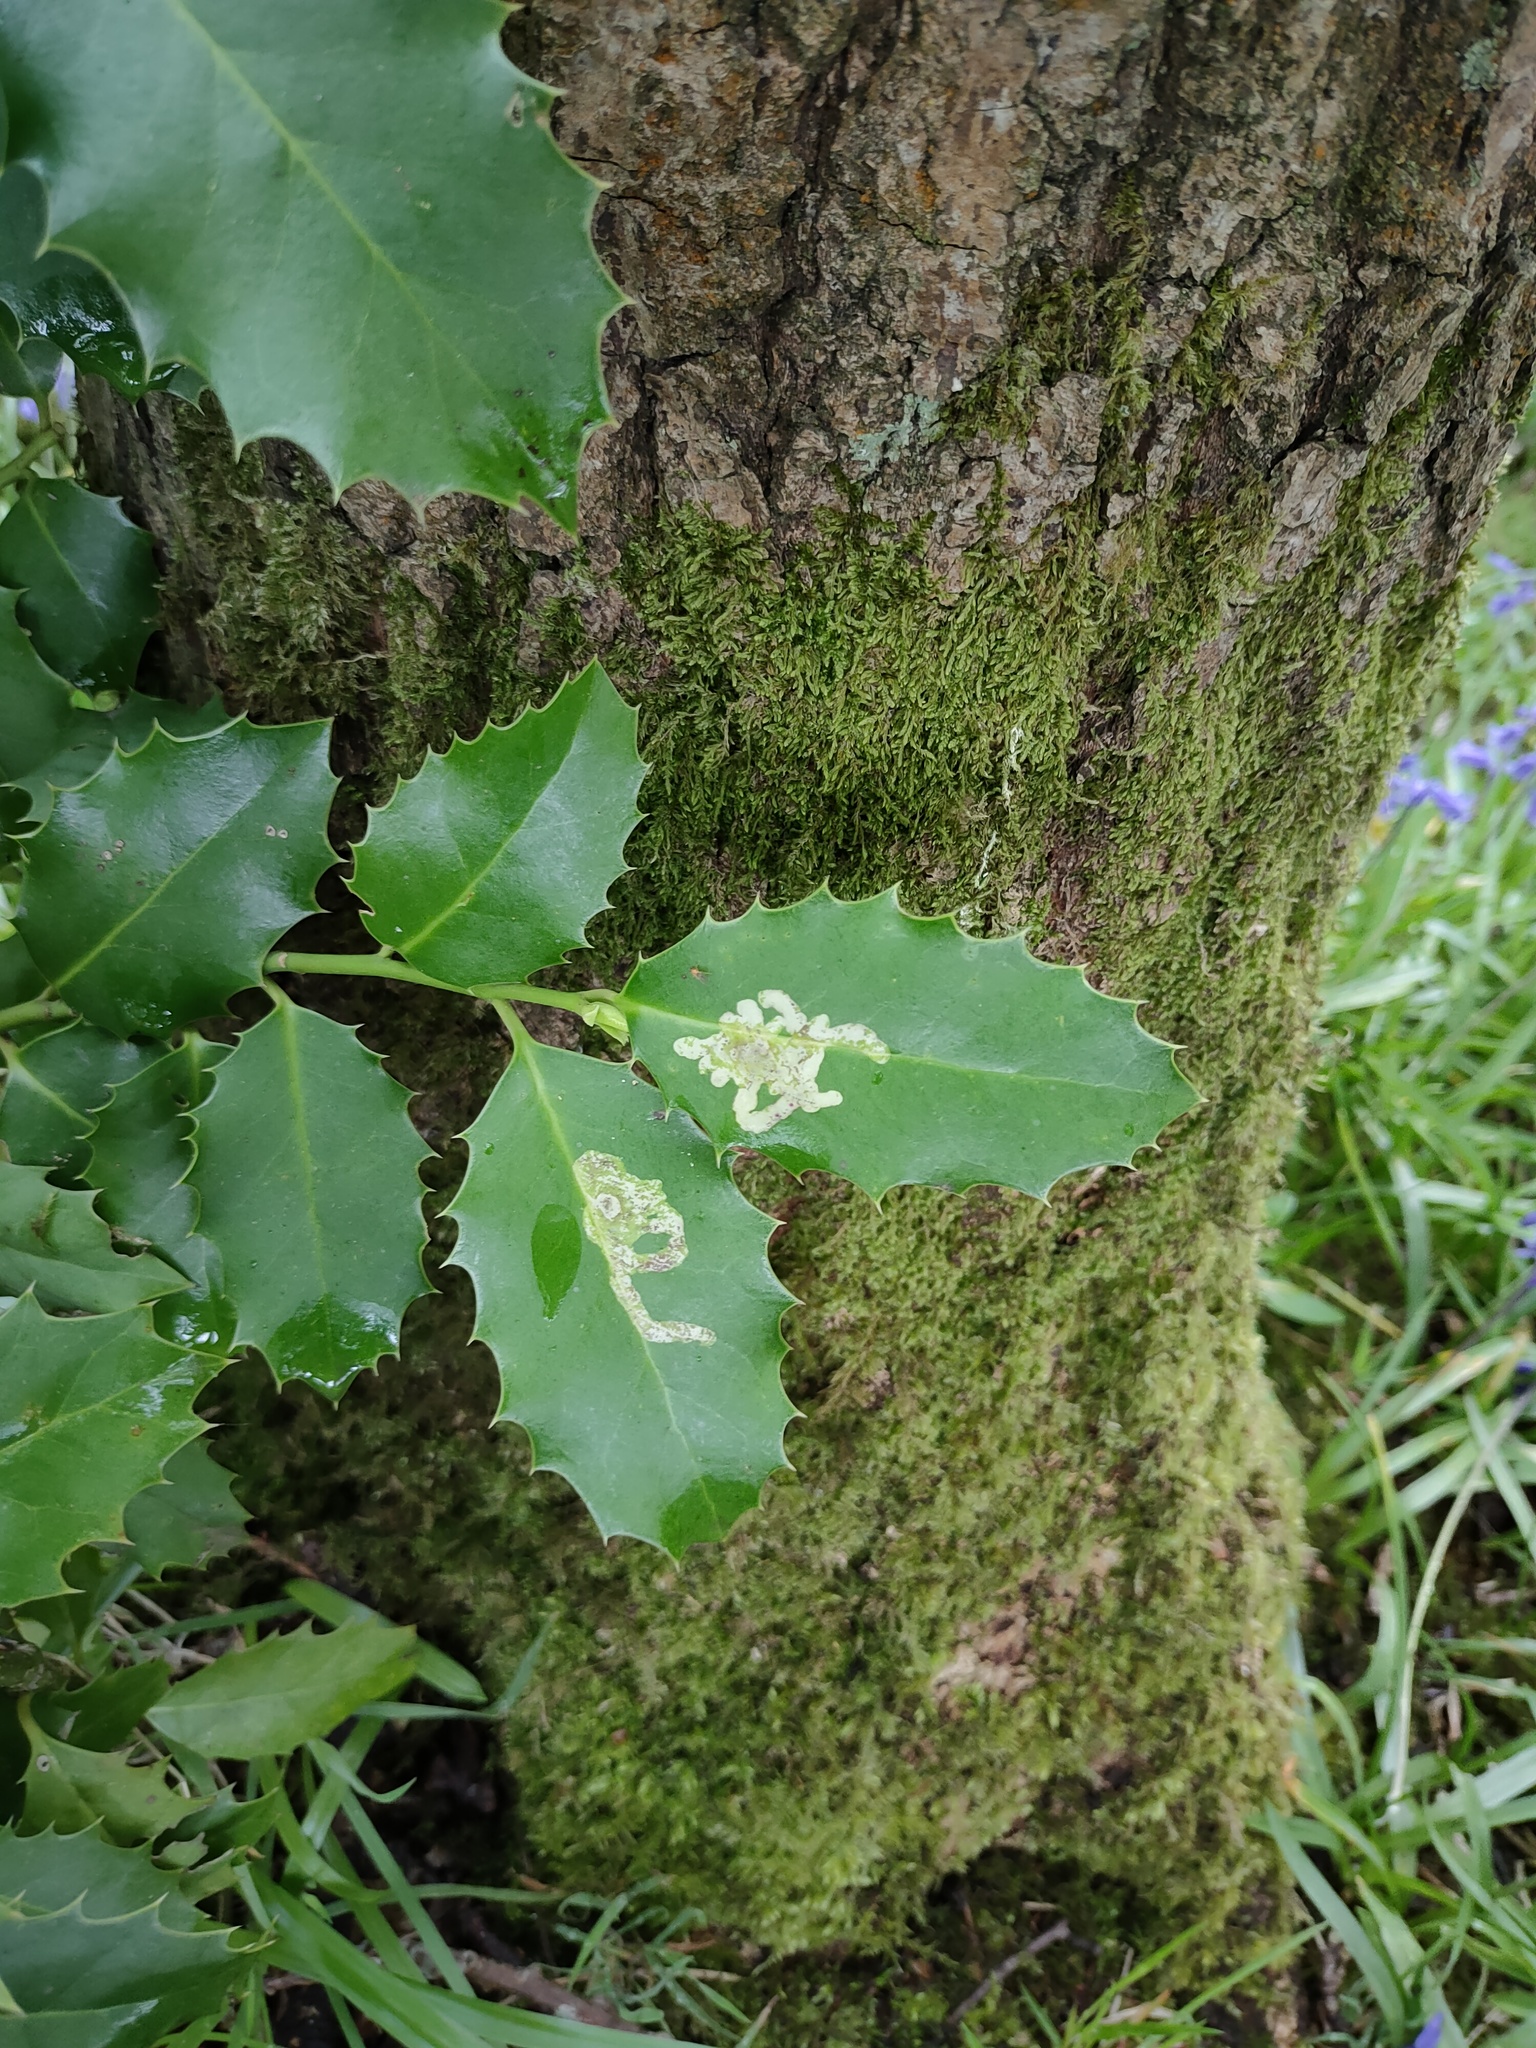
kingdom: Animalia
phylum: Arthropoda
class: Insecta
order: Diptera
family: Agromyzidae
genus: Phytomyza
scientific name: Phytomyza ilicis
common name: Holly leafminer
